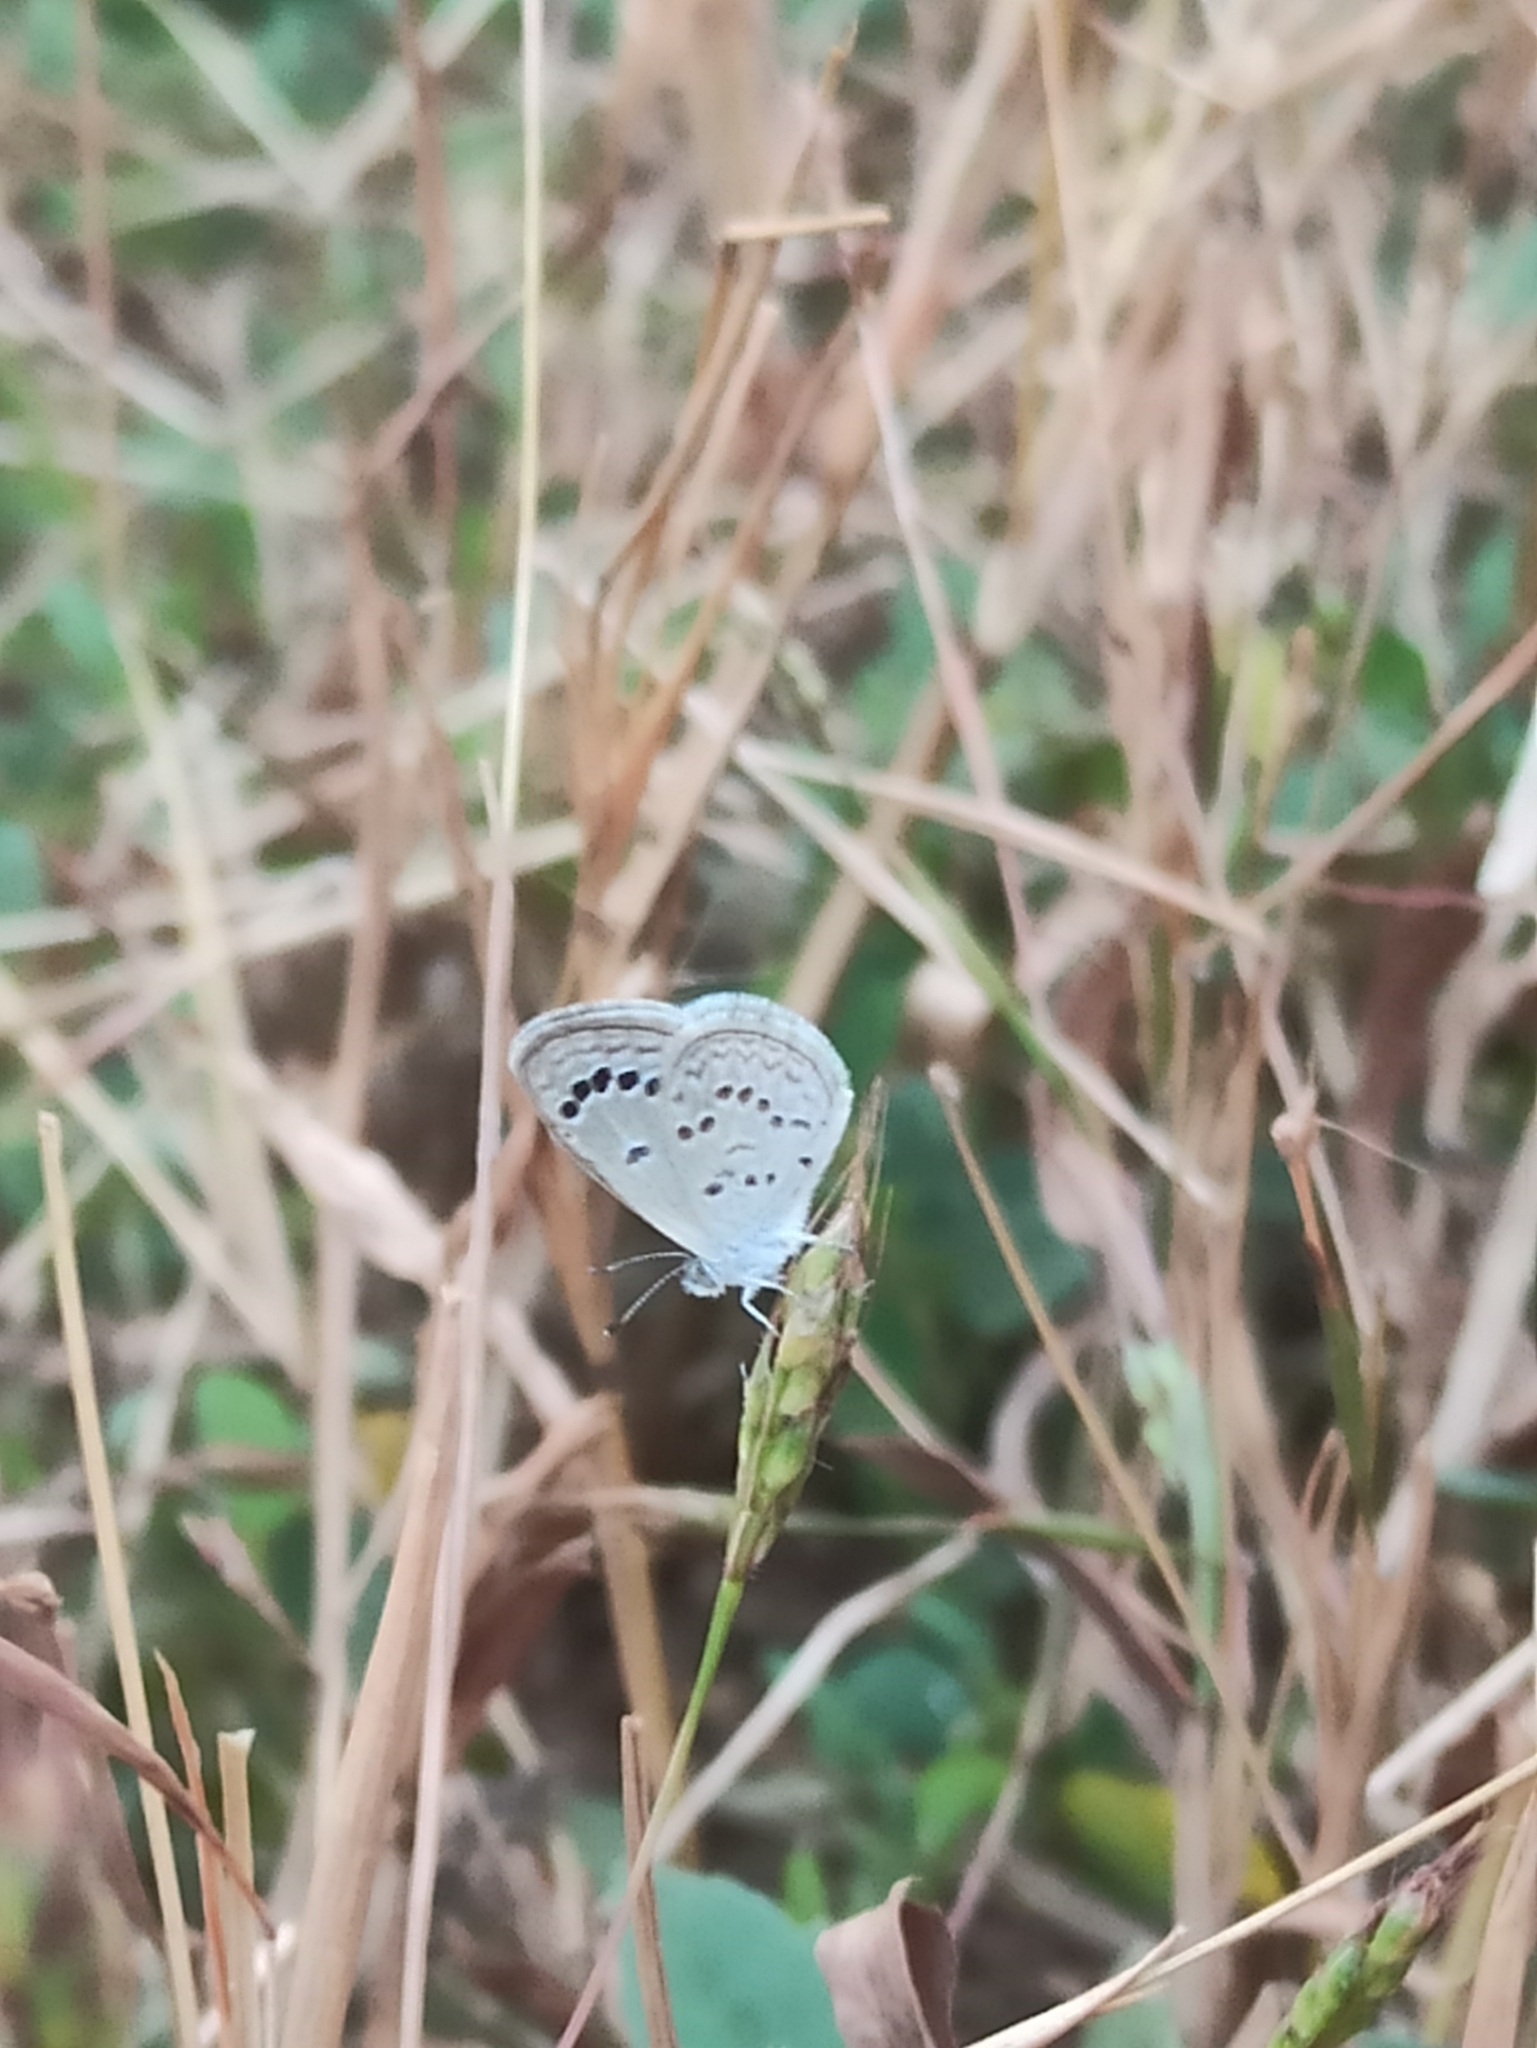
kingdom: Animalia
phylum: Arthropoda
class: Insecta
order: Lepidoptera
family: Lycaenidae
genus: Zizina
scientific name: Zizina otis
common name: Lesser grass blue
